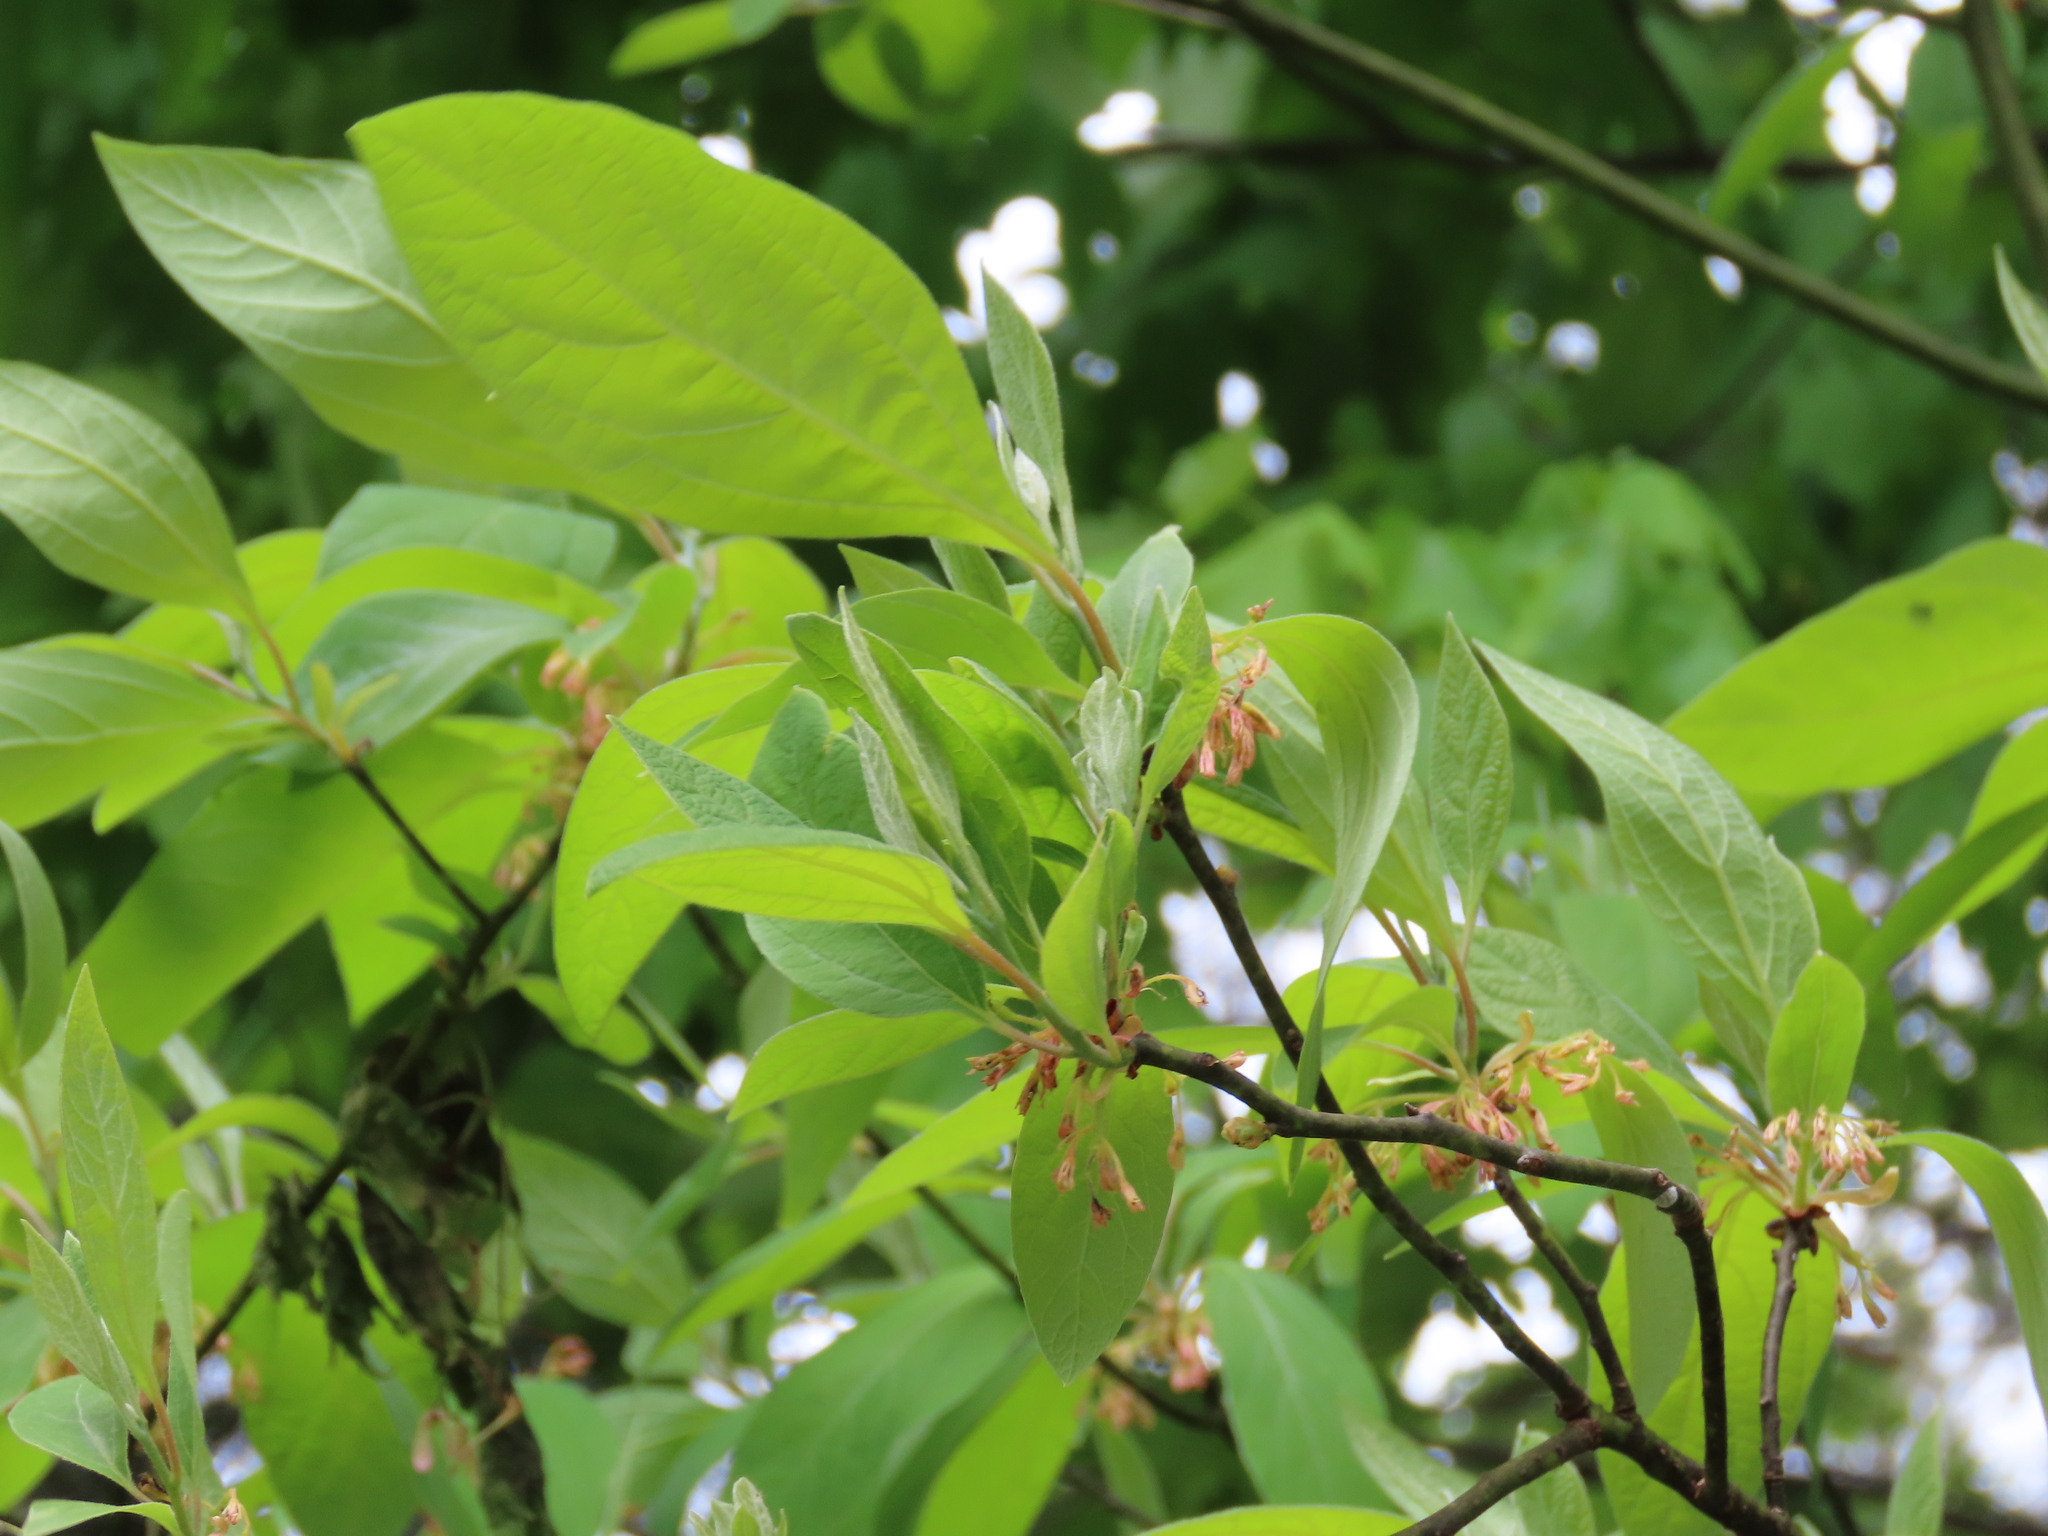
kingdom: Plantae
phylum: Tracheophyta
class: Magnoliopsida
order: Laurales
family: Lauraceae
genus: Sassafras
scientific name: Sassafras albidum
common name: Sassafras
